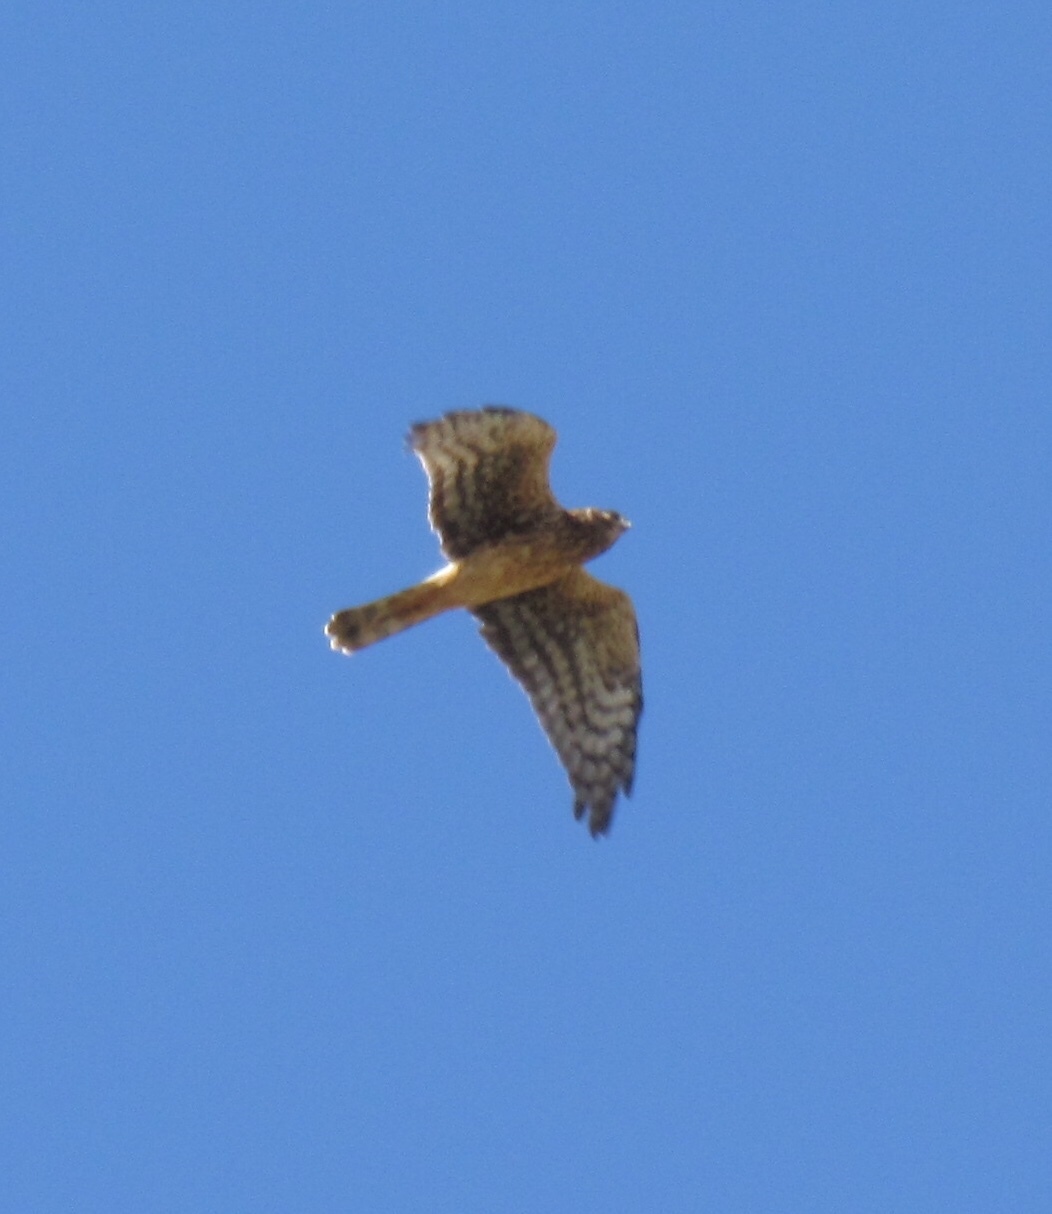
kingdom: Animalia
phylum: Chordata
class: Aves
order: Accipitriformes
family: Accipitridae
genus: Circus
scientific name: Circus cyaneus
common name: Hen harrier
